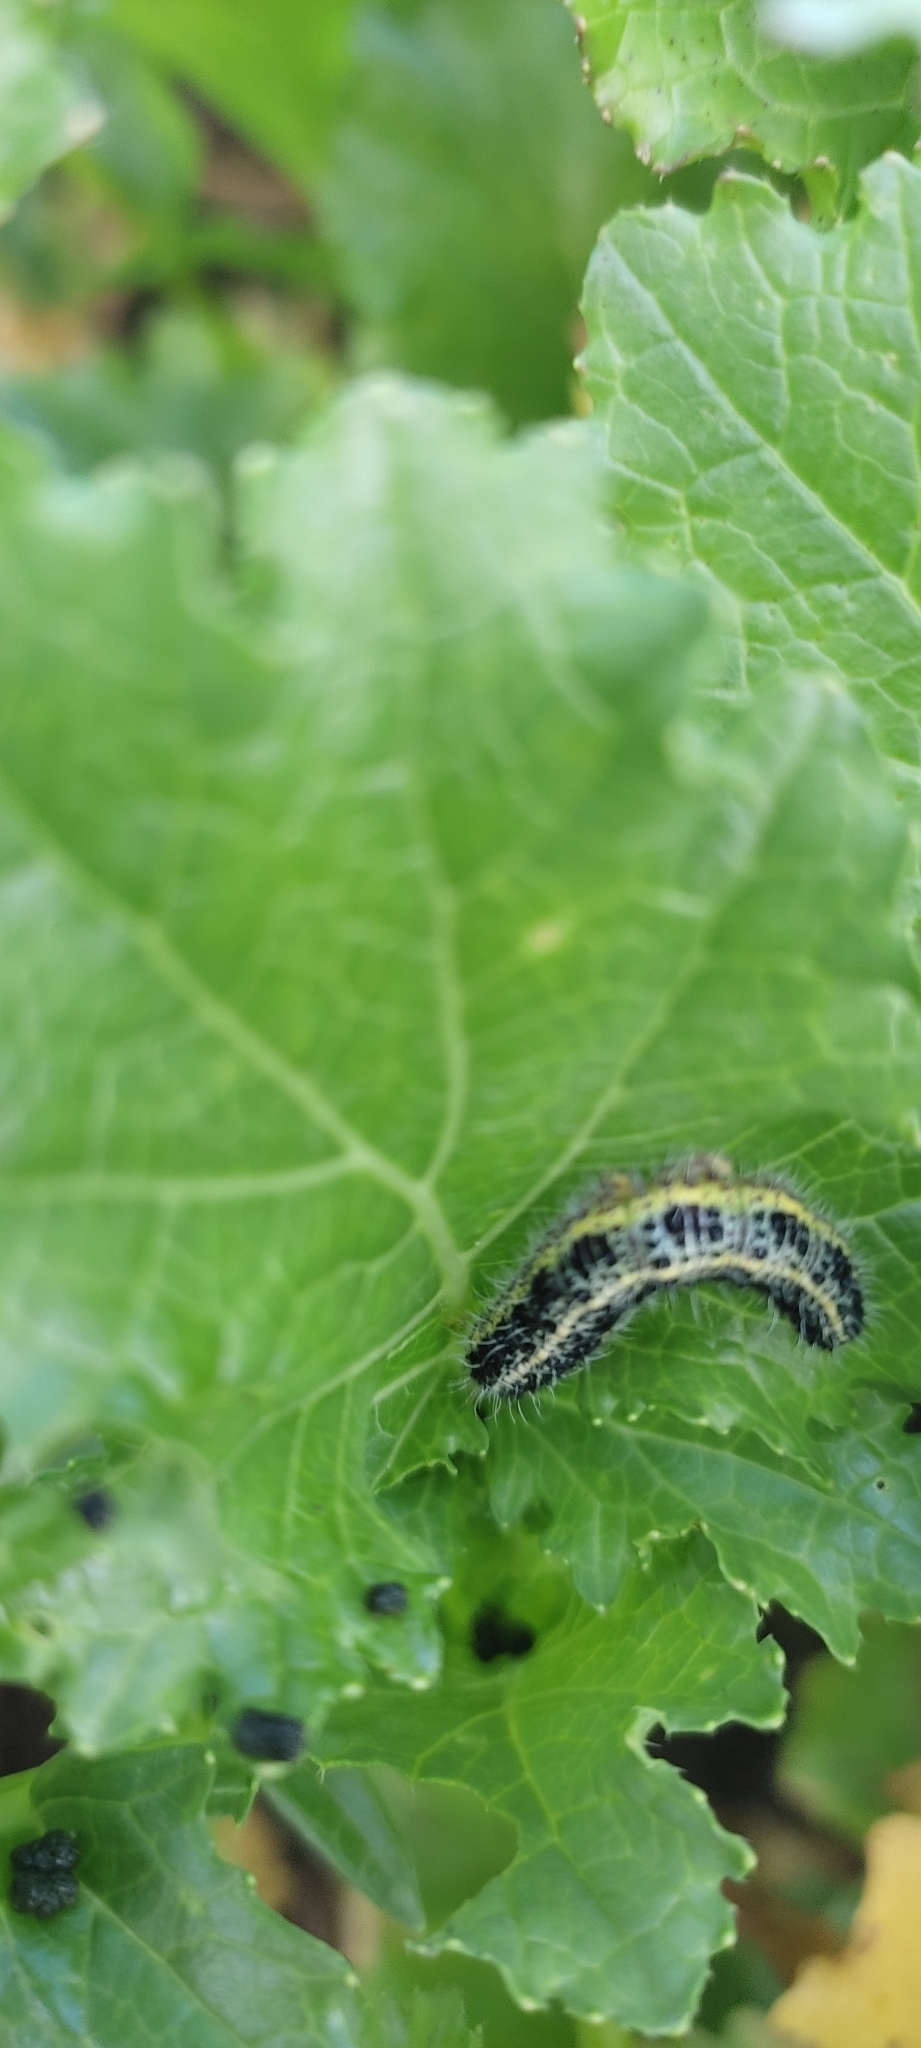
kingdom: Animalia
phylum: Arthropoda
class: Insecta
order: Lepidoptera
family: Pieridae
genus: Pieris
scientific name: Pieris brassicae
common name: Large white
